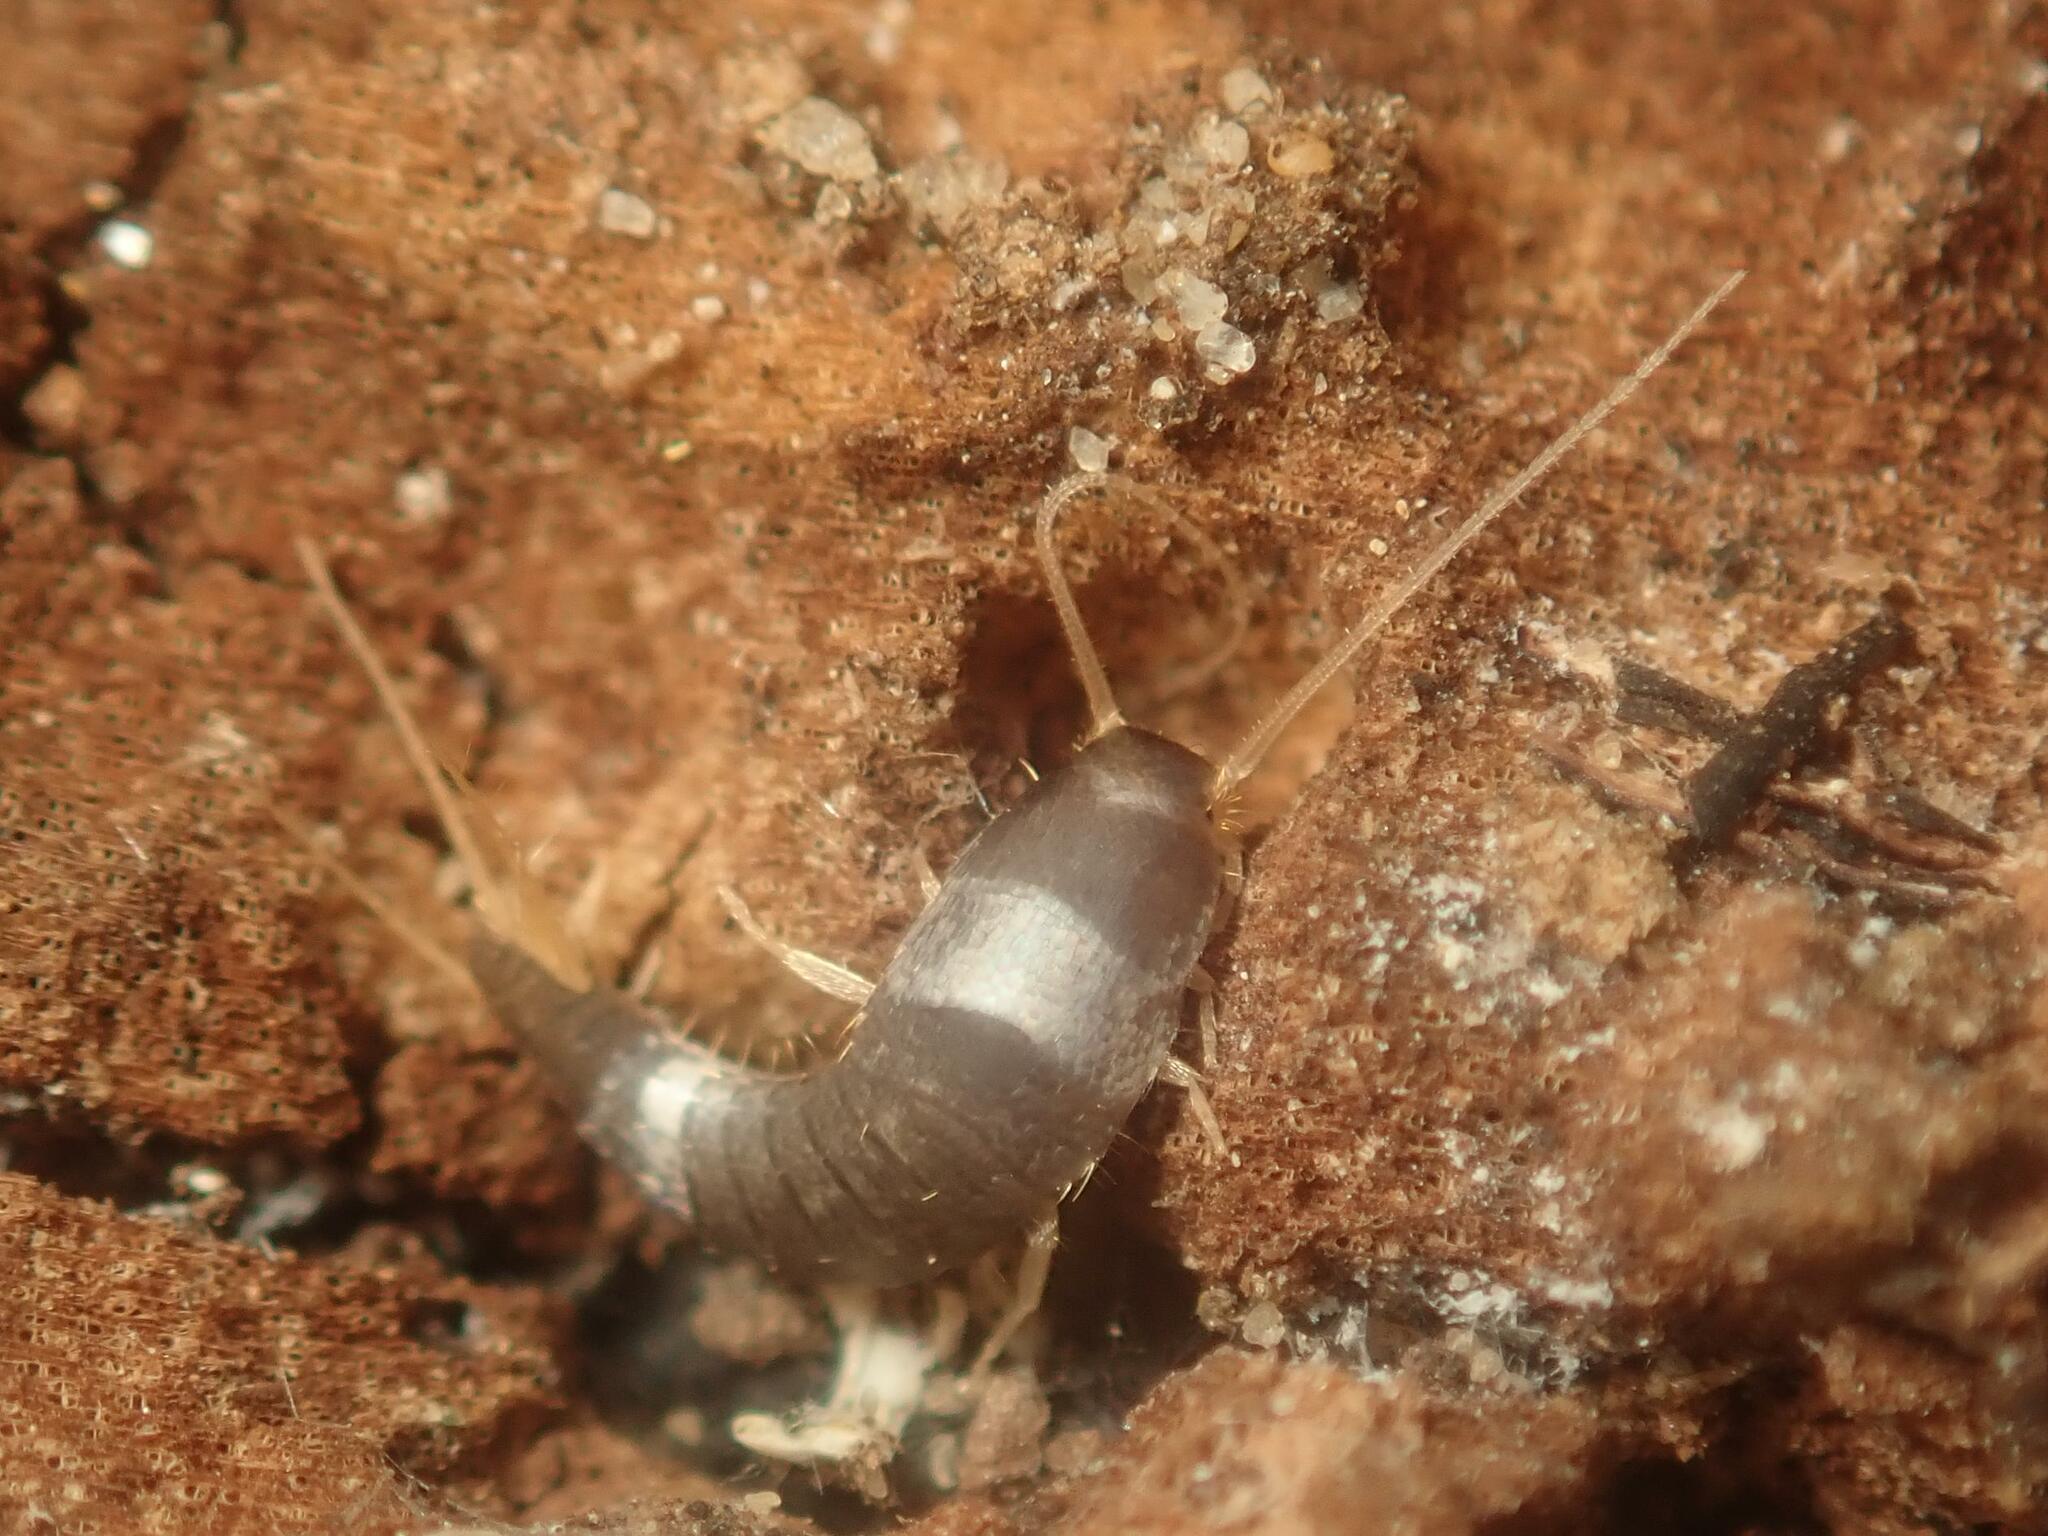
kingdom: Animalia
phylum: Arthropoda
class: Insecta
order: Zygentoma
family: Lepismatidae
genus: Lepisma
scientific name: Lepisma saccharinum
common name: Silverfish
